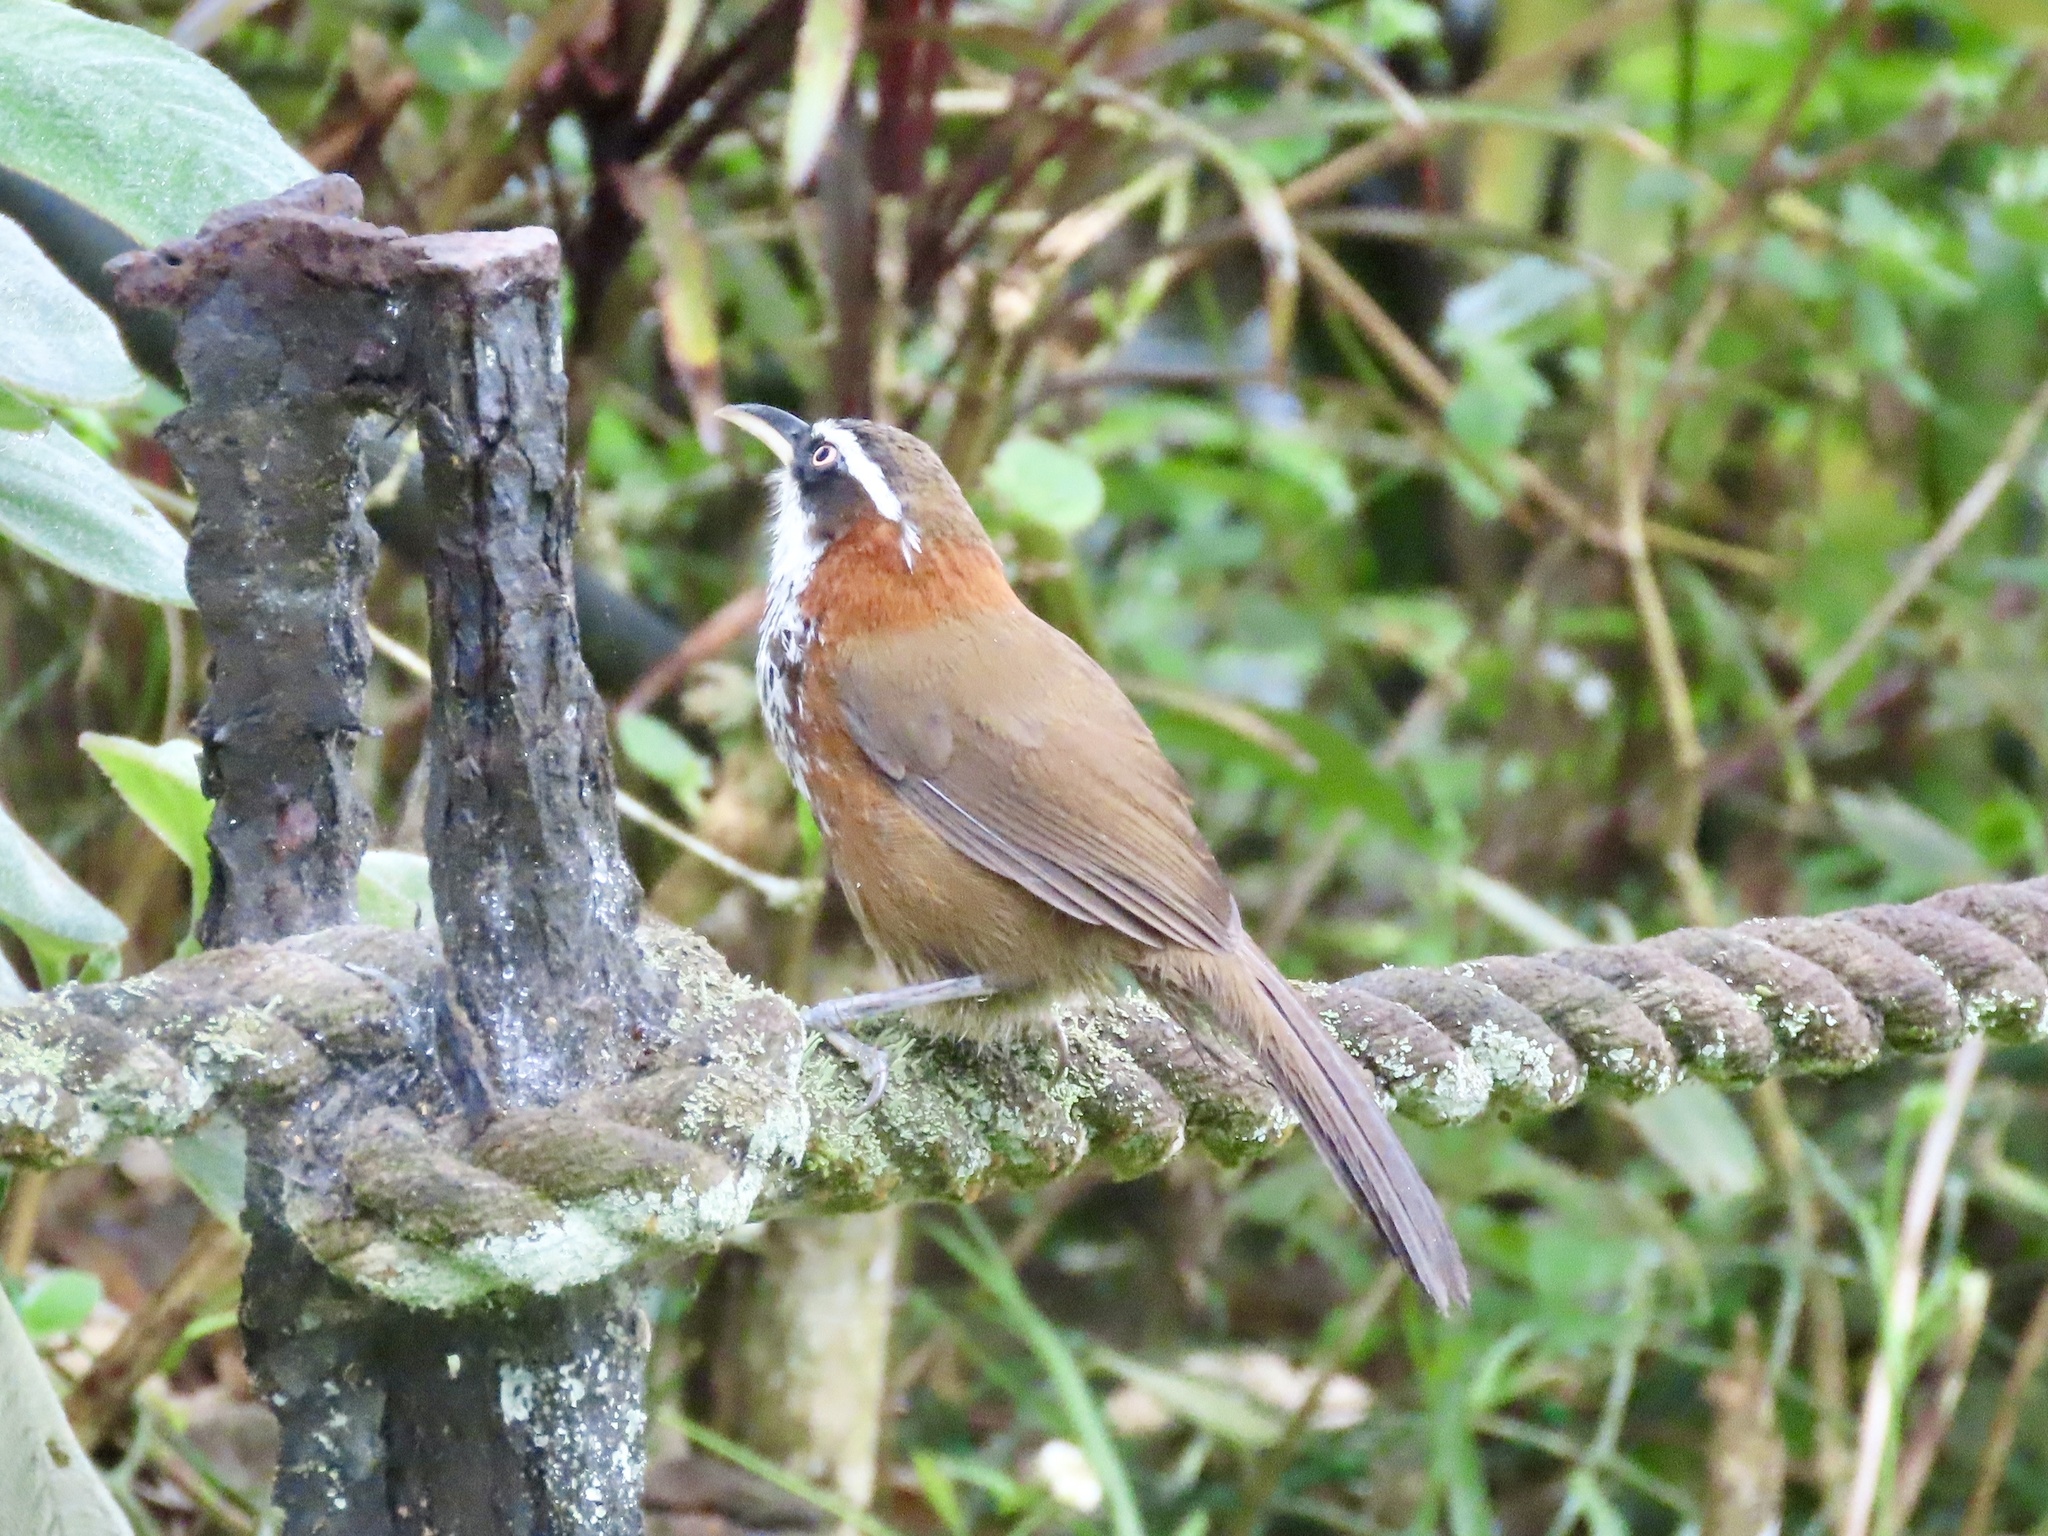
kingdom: Animalia
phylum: Chordata
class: Aves
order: Passeriformes
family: Timaliidae
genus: Pomatorhinus
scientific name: Pomatorhinus musicus
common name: Taiwan scimitar-babbler
